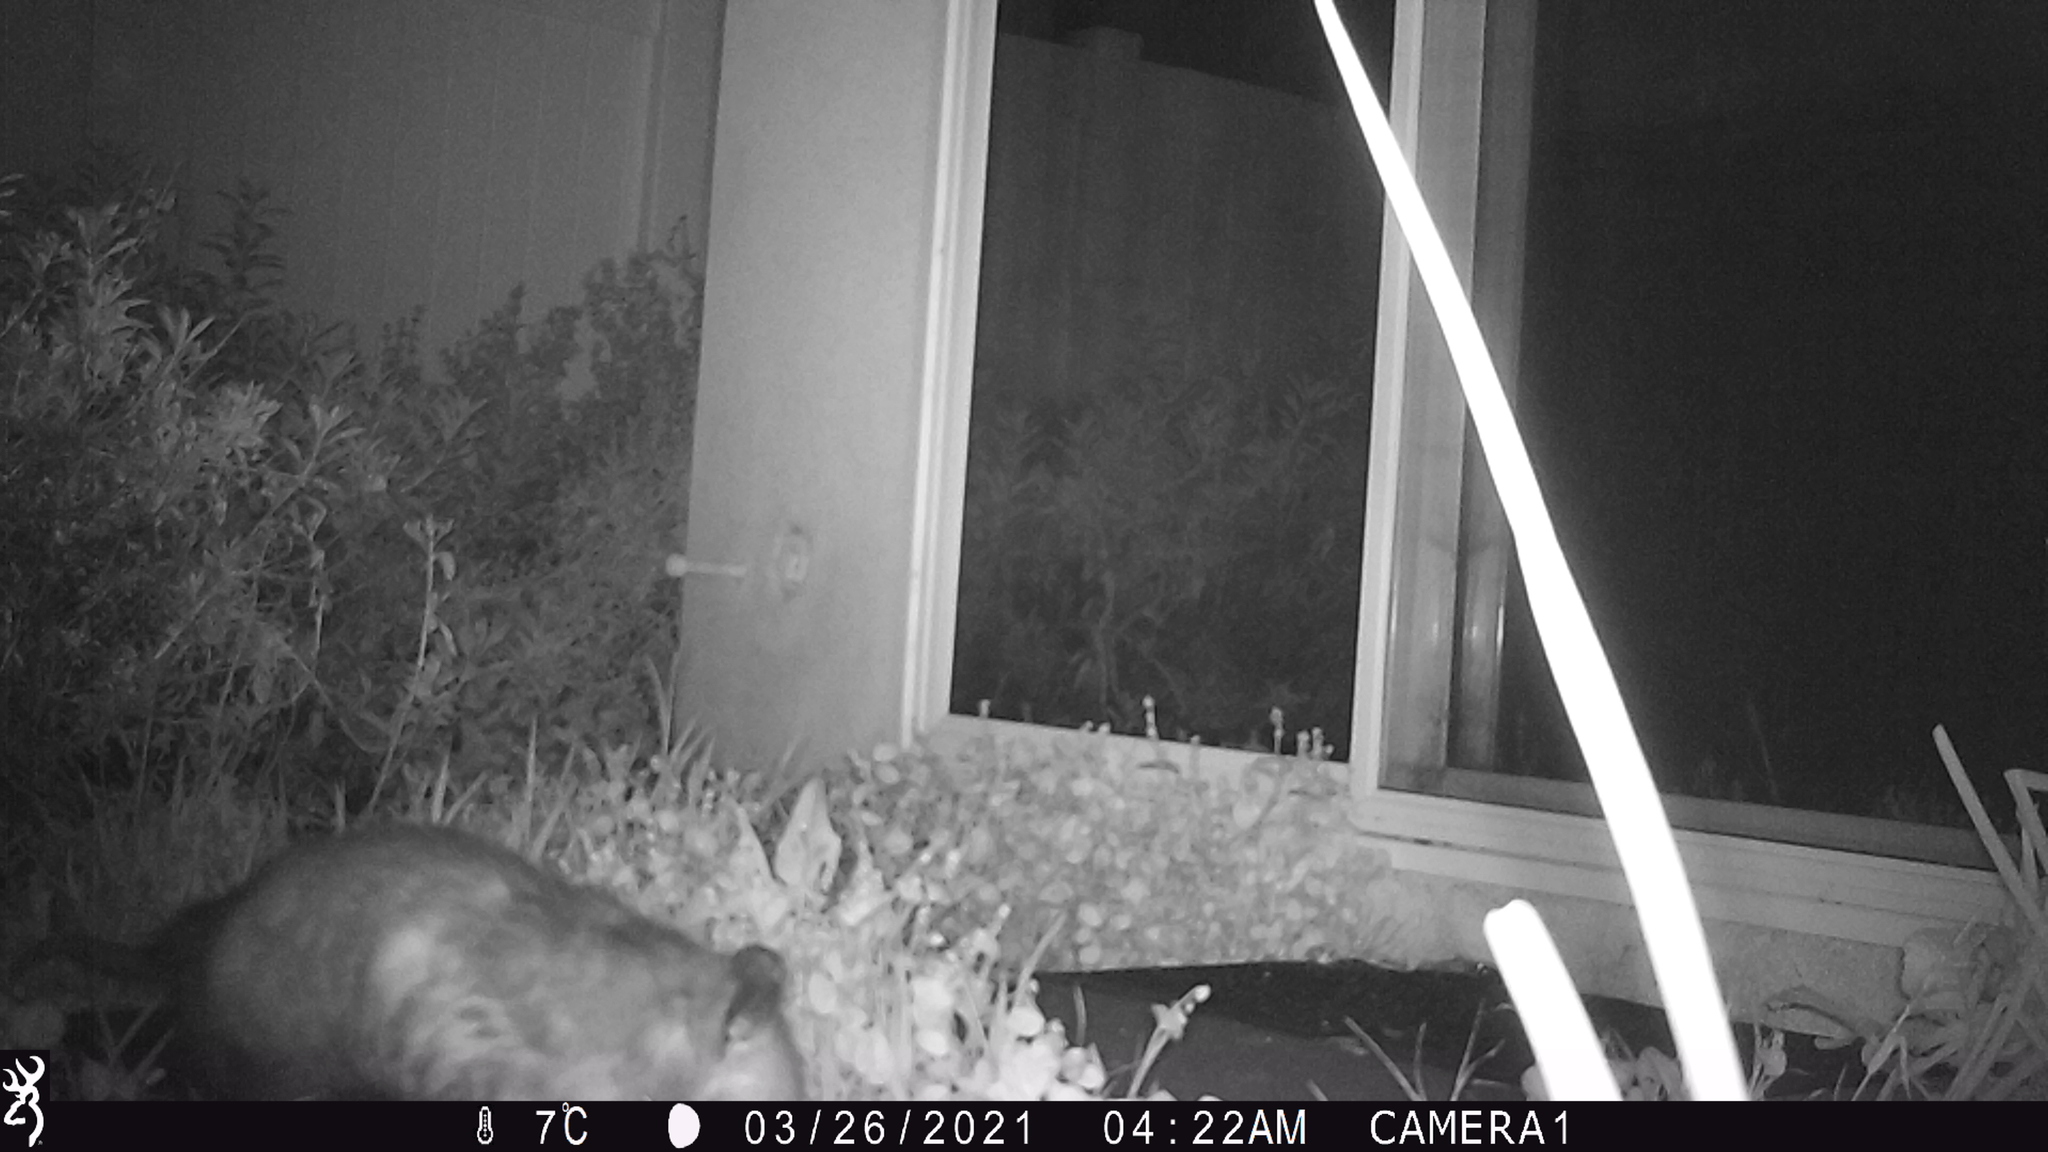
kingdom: Animalia
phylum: Chordata
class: Mammalia
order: Didelphimorphia
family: Didelphidae
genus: Didelphis
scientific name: Didelphis virginiana
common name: Virginia opossum
